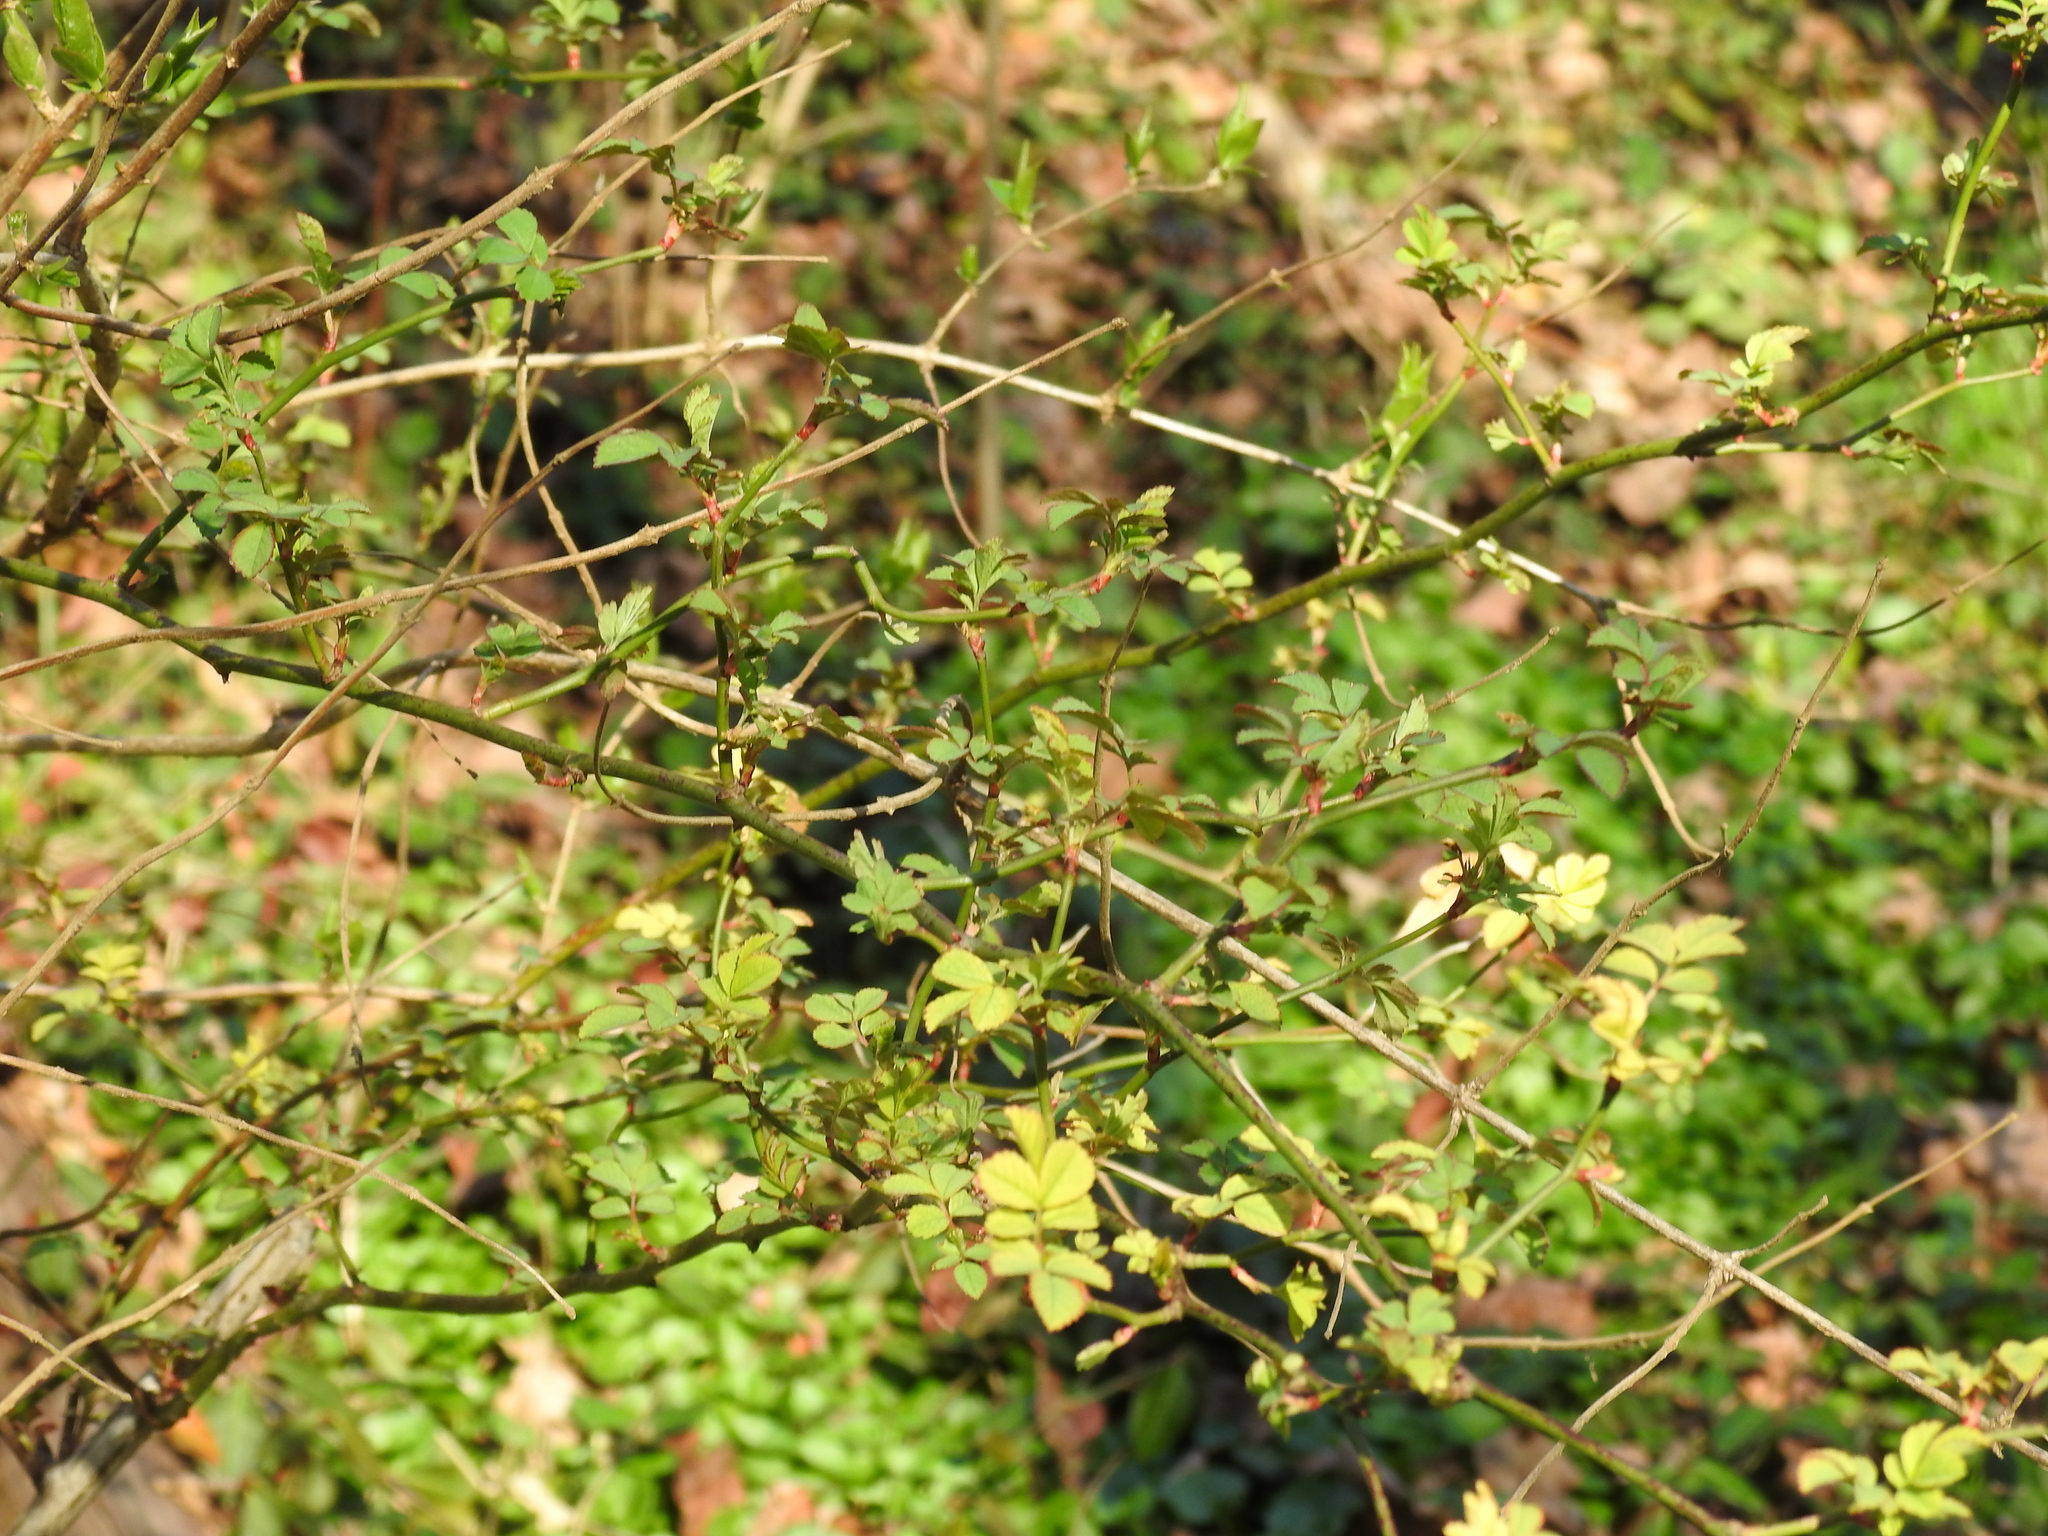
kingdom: Plantae
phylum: Tracheophyta
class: Magnoliopsida
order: Rosales
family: Rosaceae
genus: Rosa
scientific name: Rosa multiflora
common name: Multiflora rose
